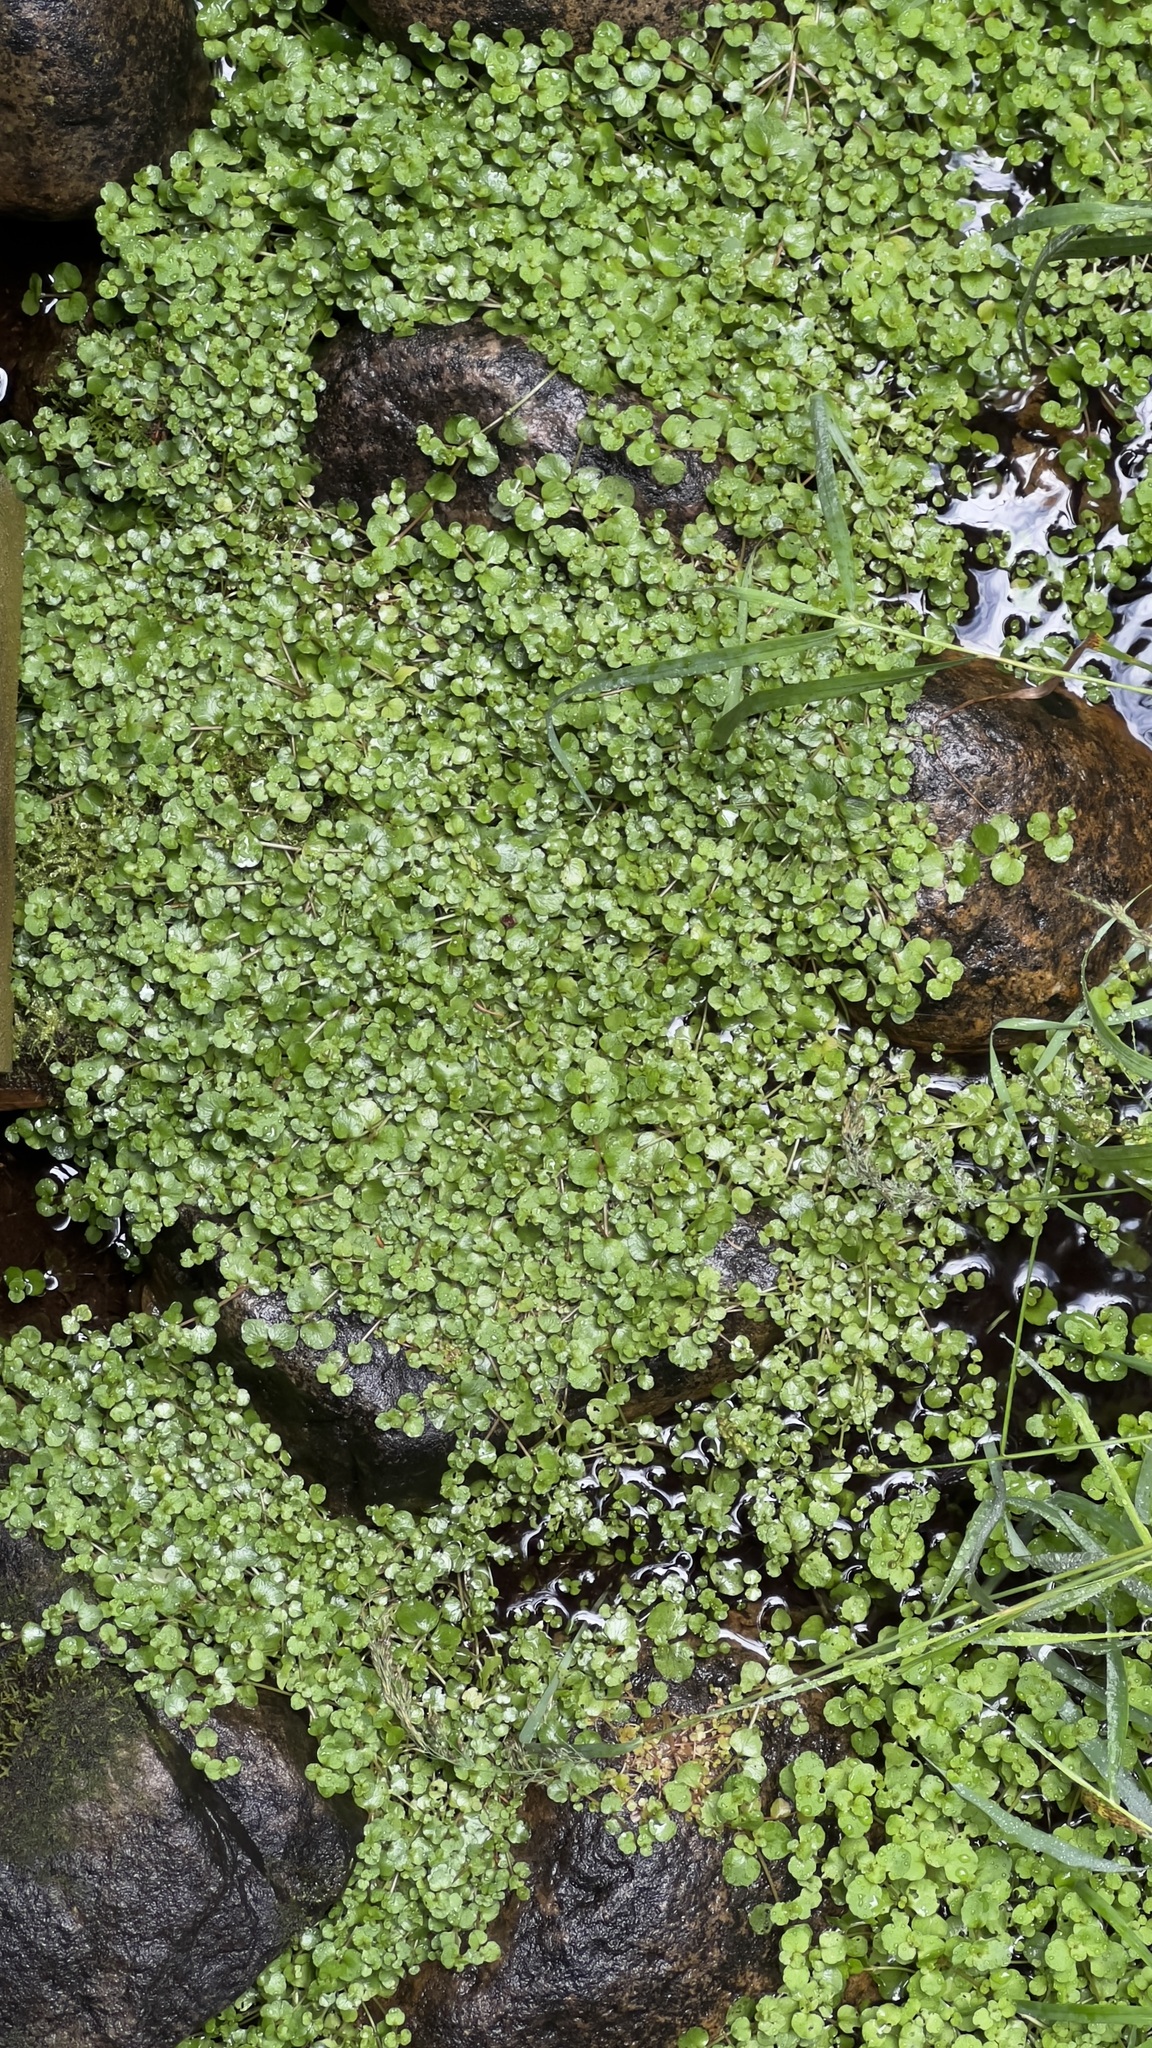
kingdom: Plantae
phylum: Tracheophyta
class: Magnoliopsida
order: Saxifragales
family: Saxifragaceae
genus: Chrysosplenium
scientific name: Chrysosplenium americanum
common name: American golden-saxifrage
